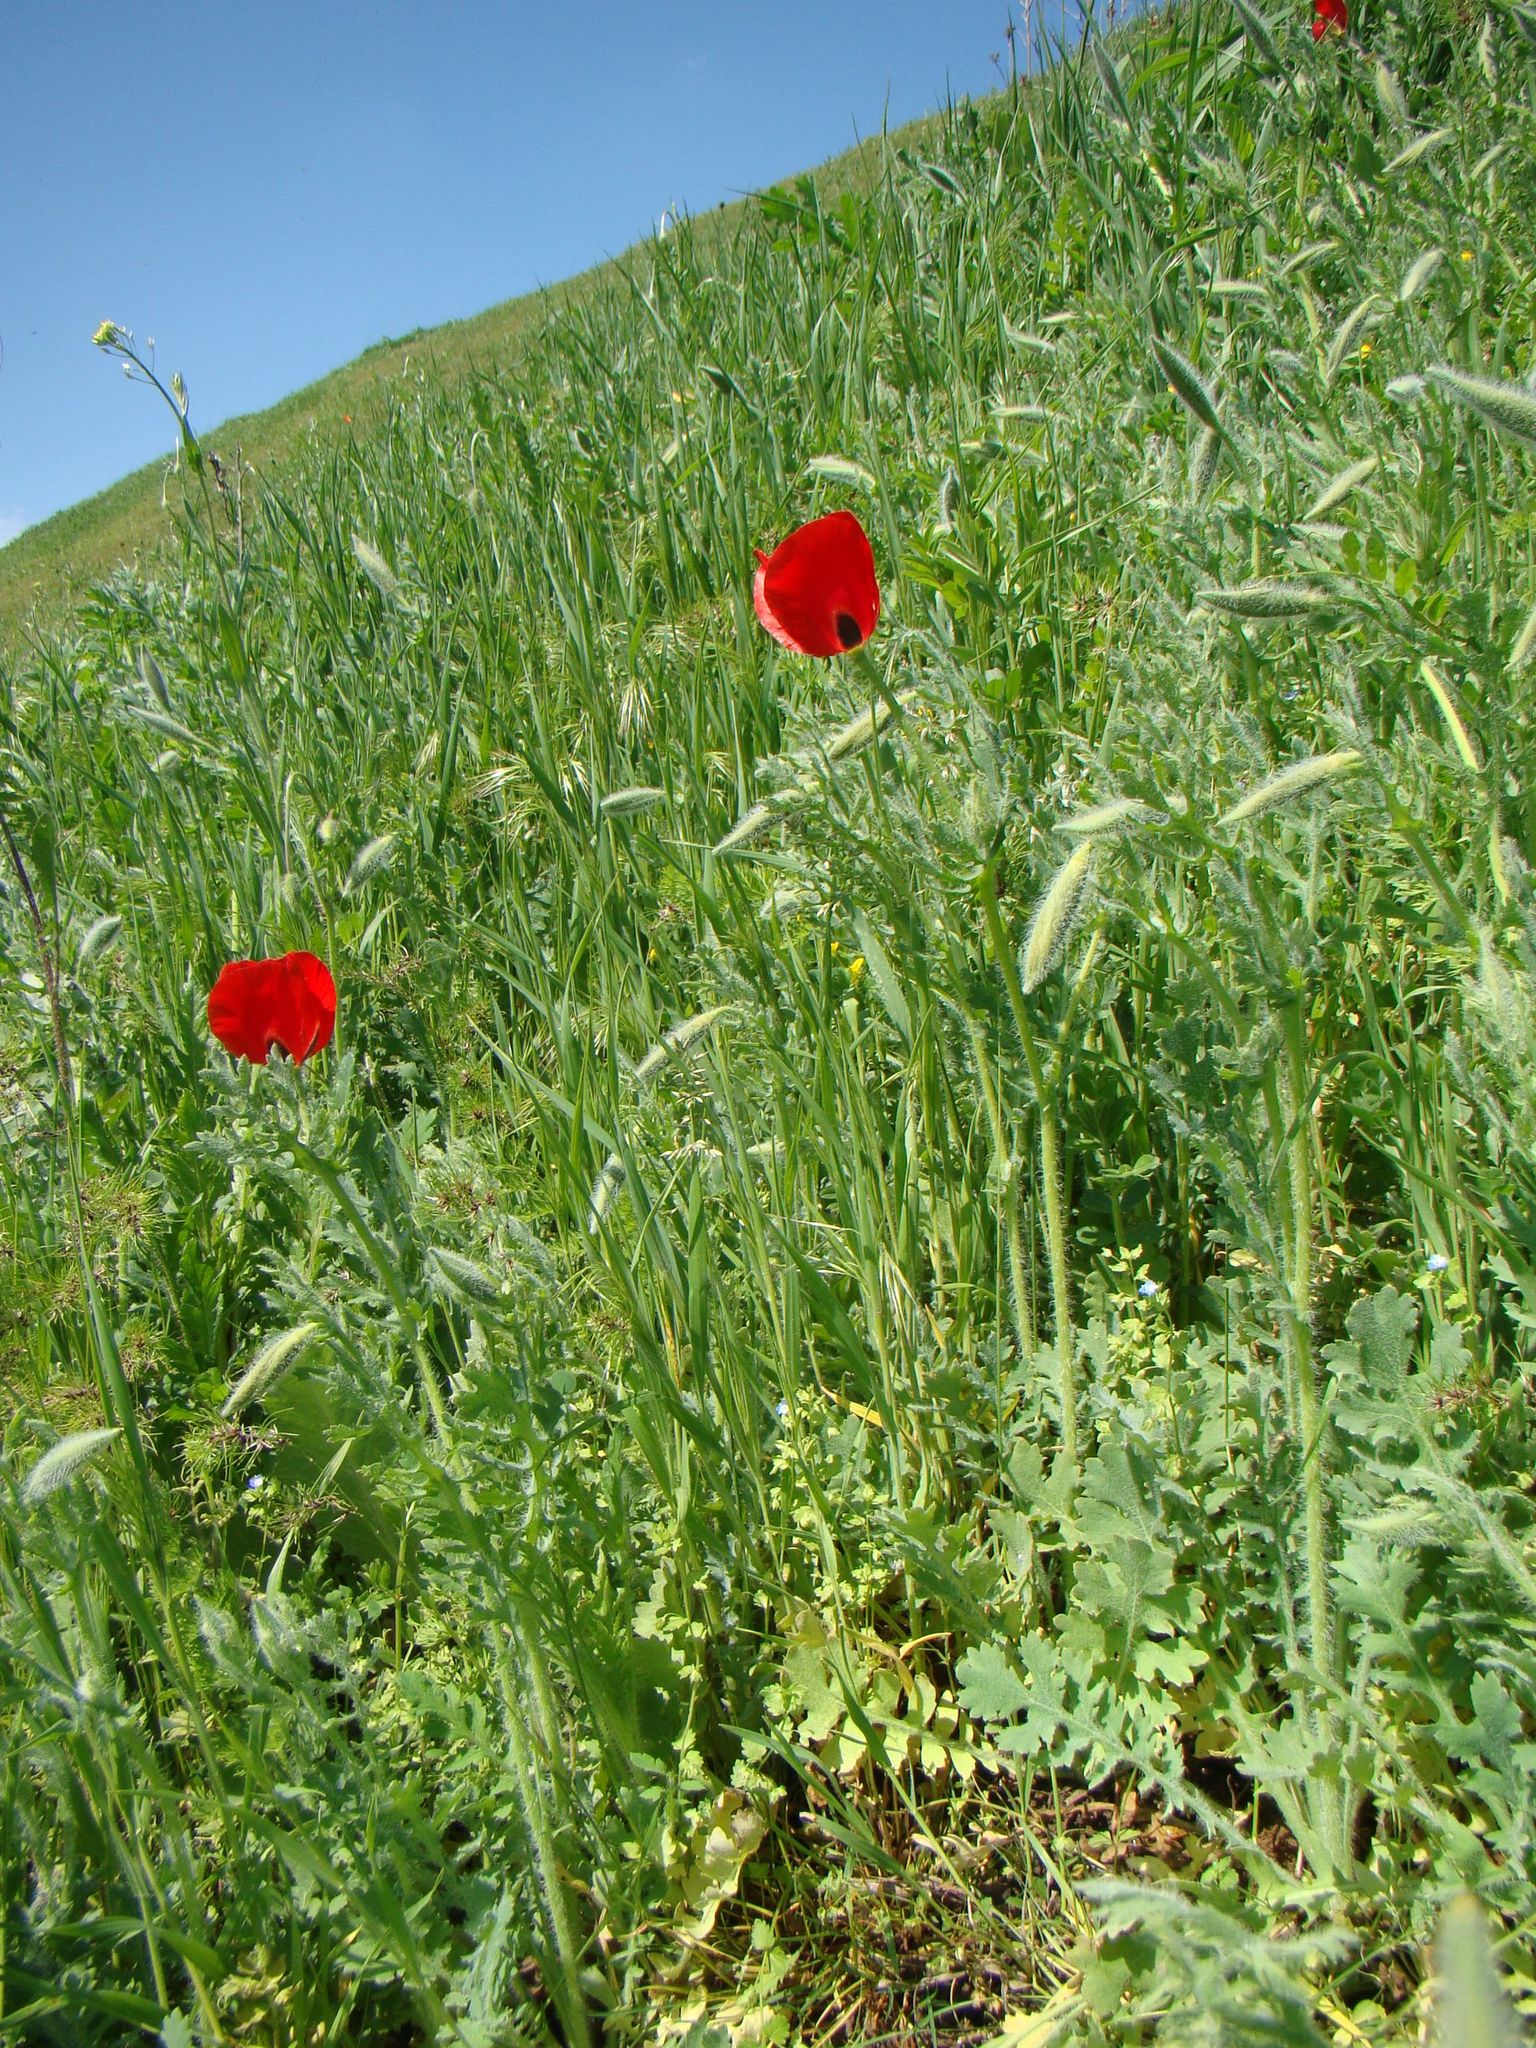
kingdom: Plantae
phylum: Tracheophyta
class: Magnoliopsida
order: Ranunculales
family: Papaveraceae
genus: Glaucium
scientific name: Glaucium corniculatum
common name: Red horned-poppy
